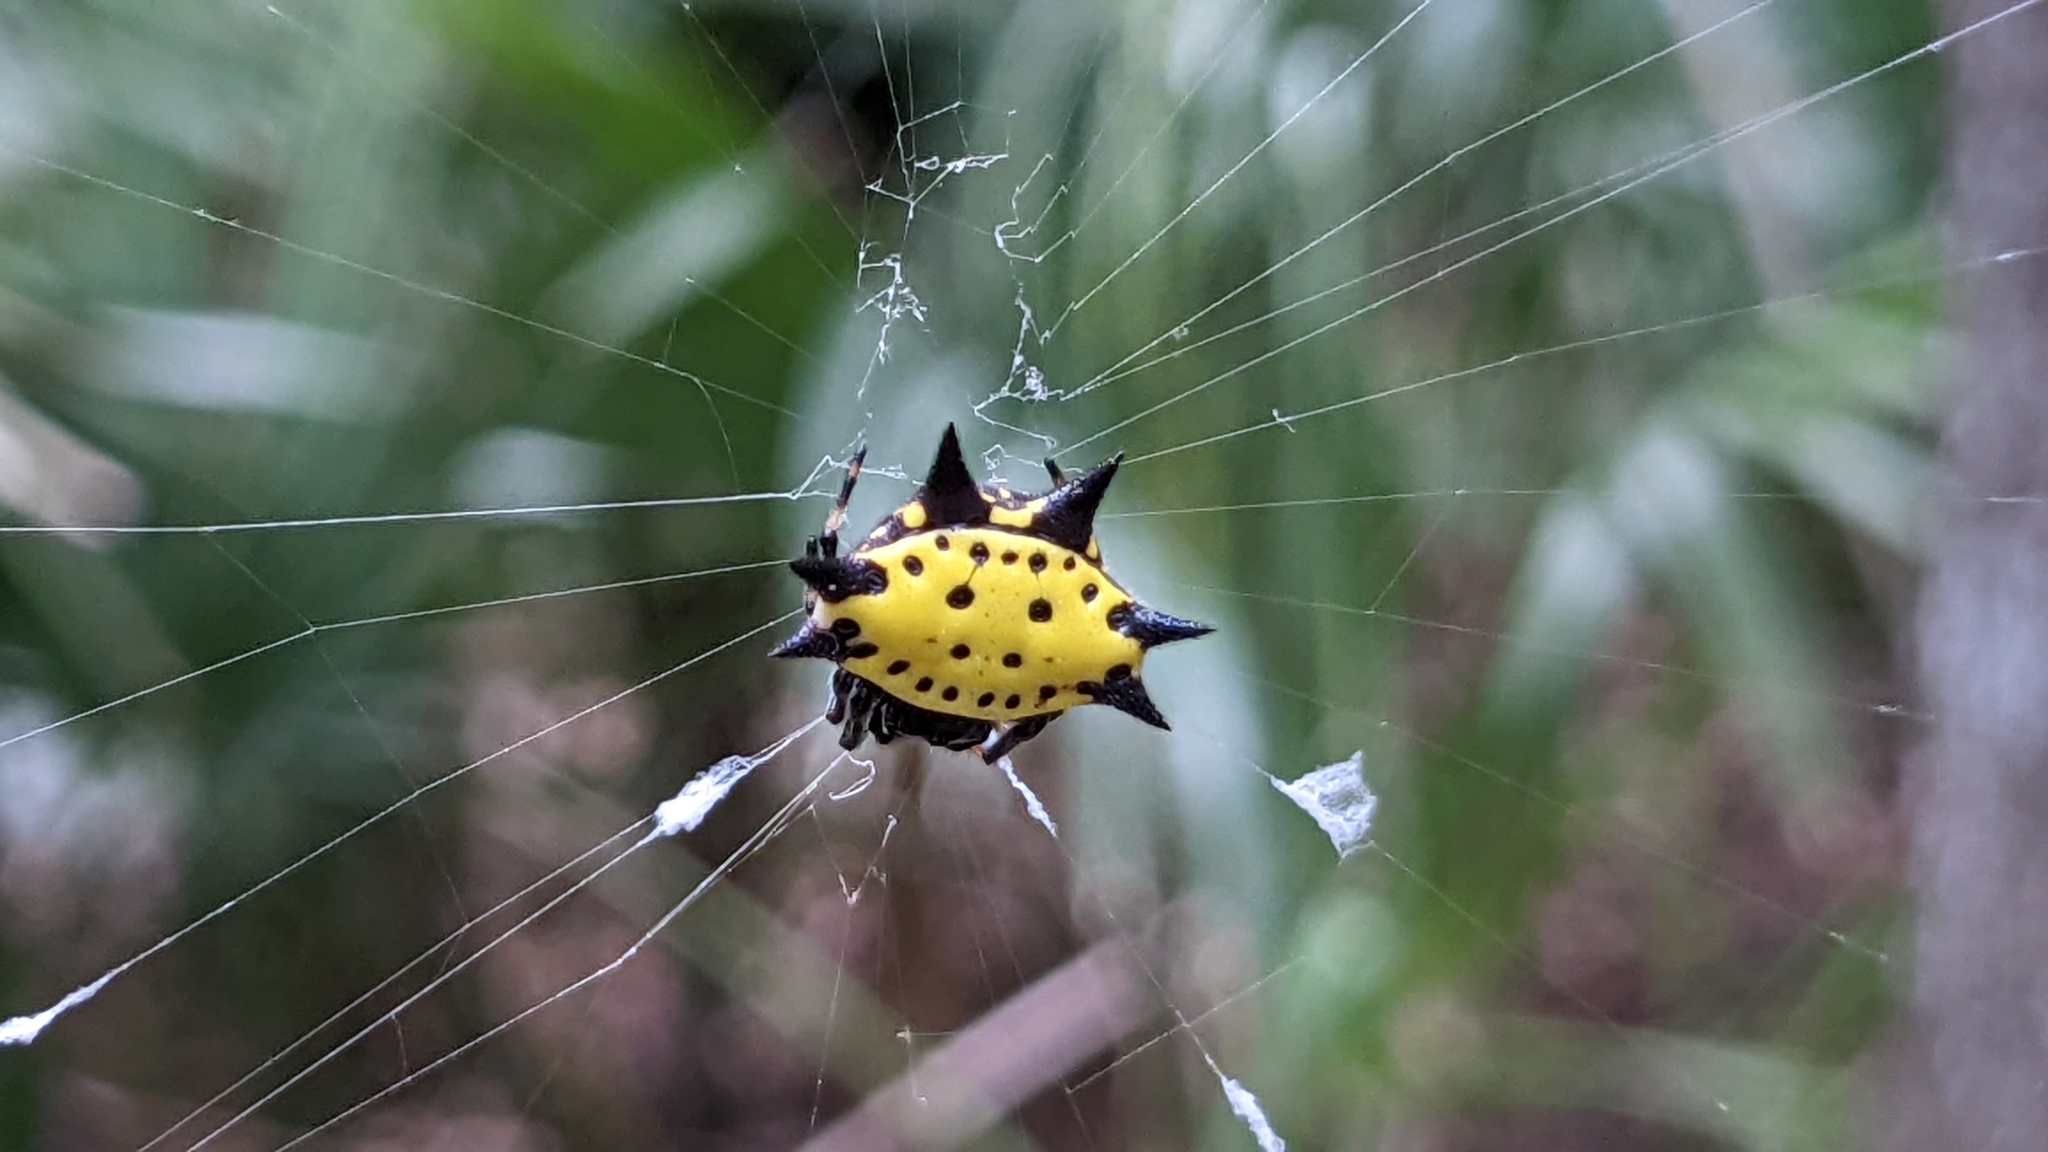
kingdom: Animalia
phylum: Arthropoda
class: Arachnida
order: Araneae
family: Araneidae
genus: Gasteracantha
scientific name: Gasteracantha cancriformis
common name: Orb weavers
